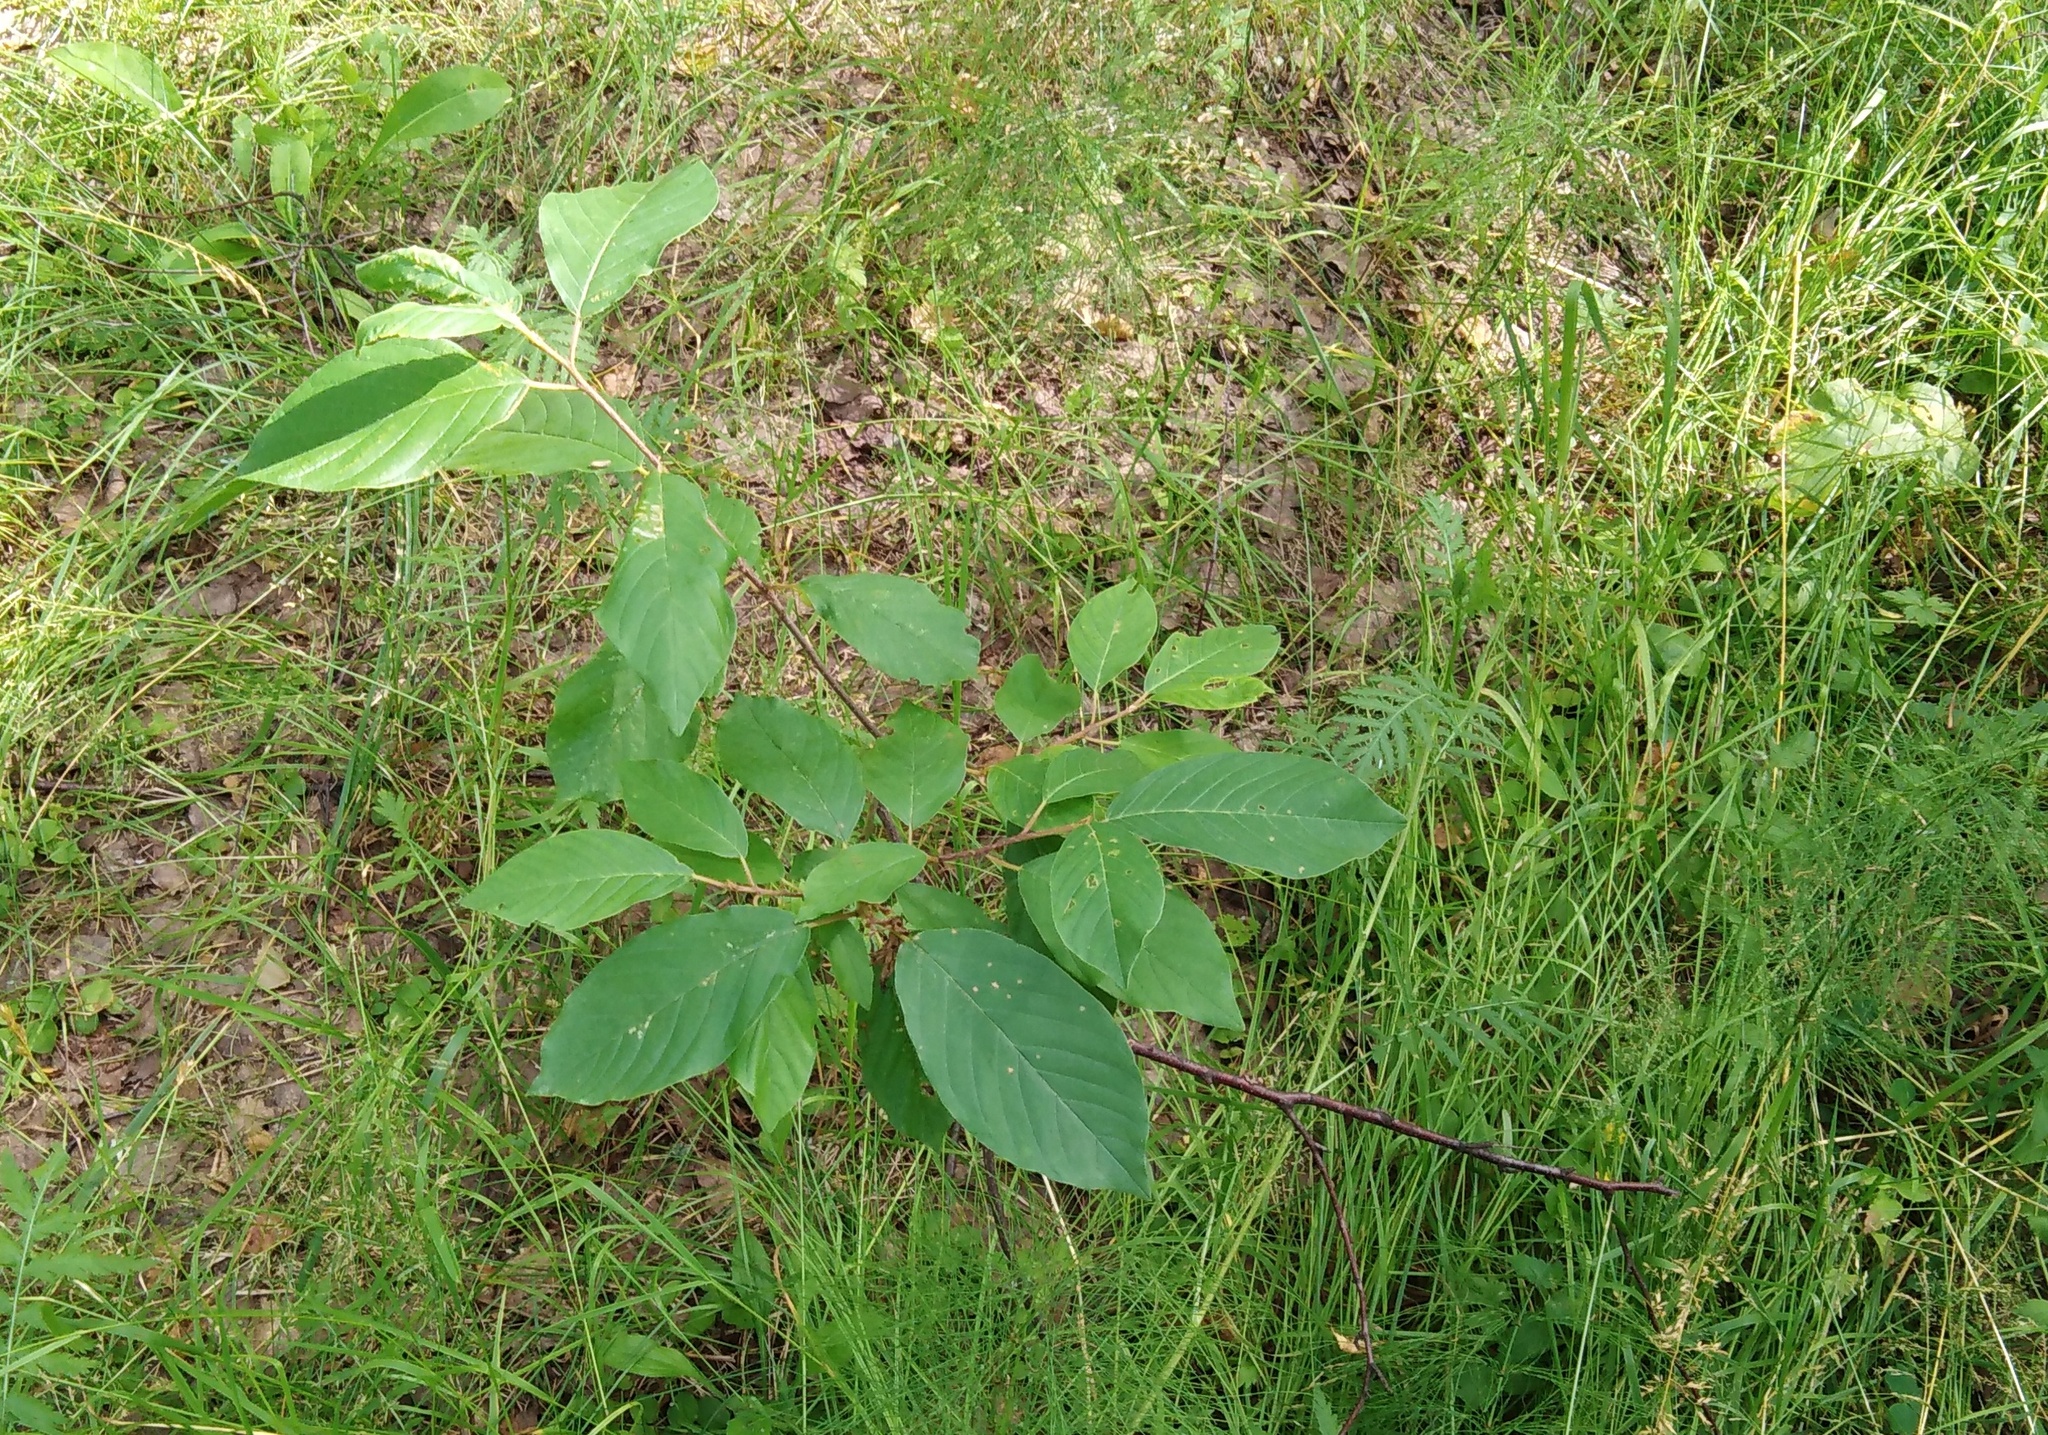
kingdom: Plantae
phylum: Tracheophyta
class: Magnoliopsida
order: Rosales
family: Rhamnaceae
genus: Frangula
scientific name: Frangula alnus
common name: Alder buckthorn
